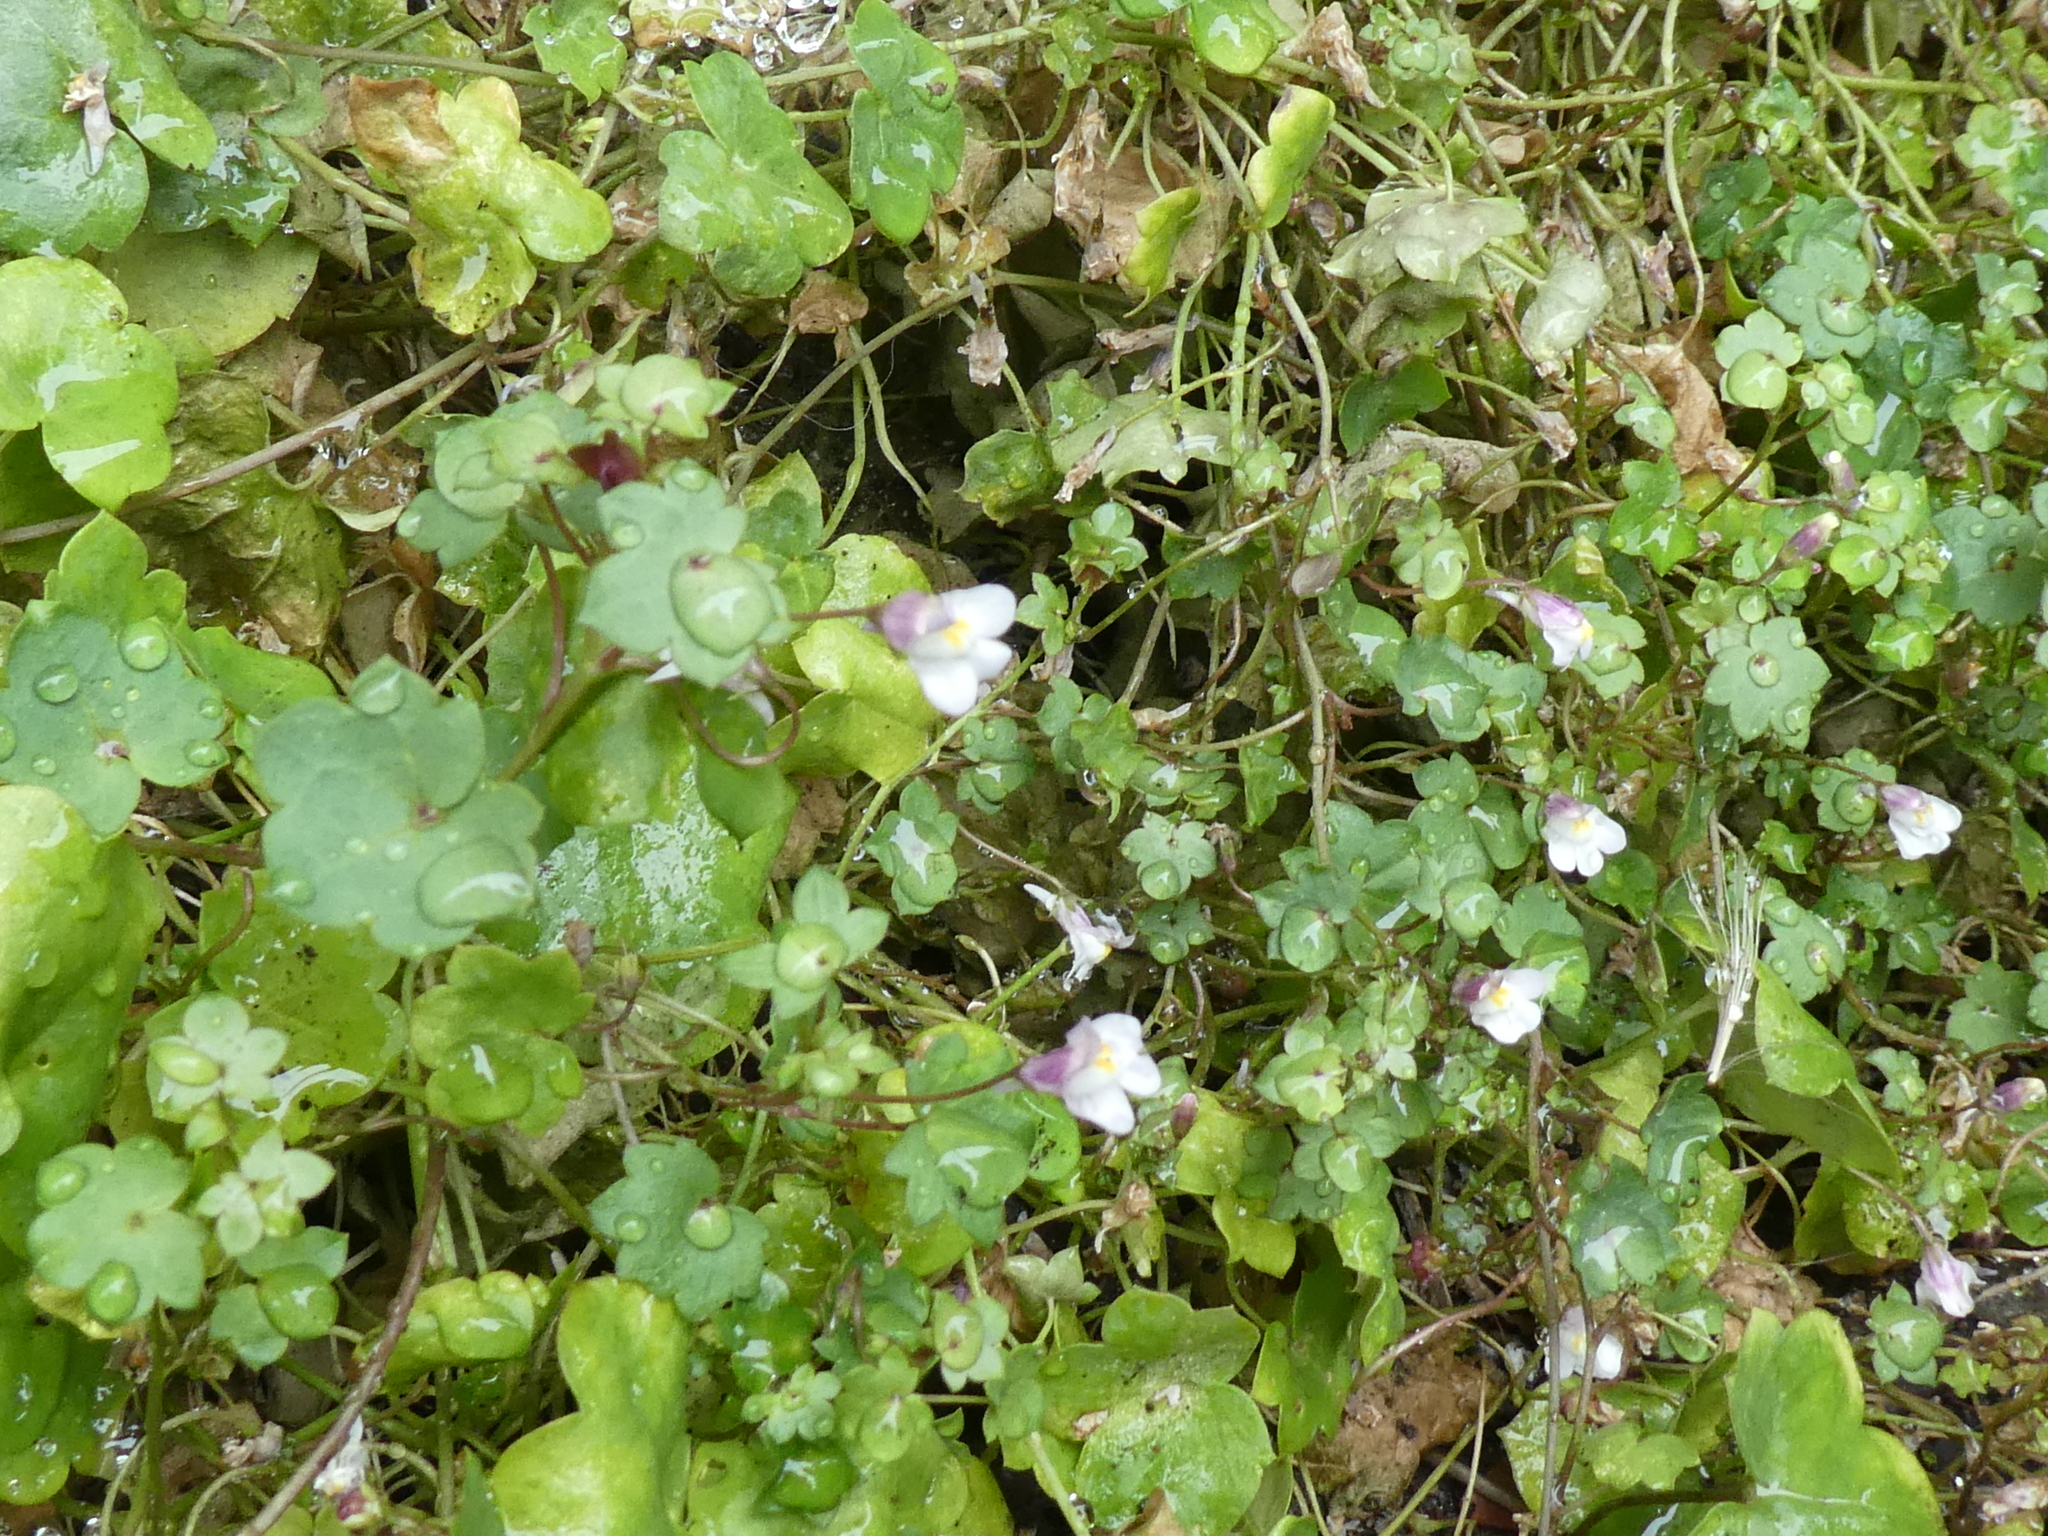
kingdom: Plantae
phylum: Tracheophyta
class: Magnoliopsida
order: Lamiales
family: Plantaginaceae
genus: Cymbalaria
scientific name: Cymbalaria muralis
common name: Ivy-leaved toadflax
